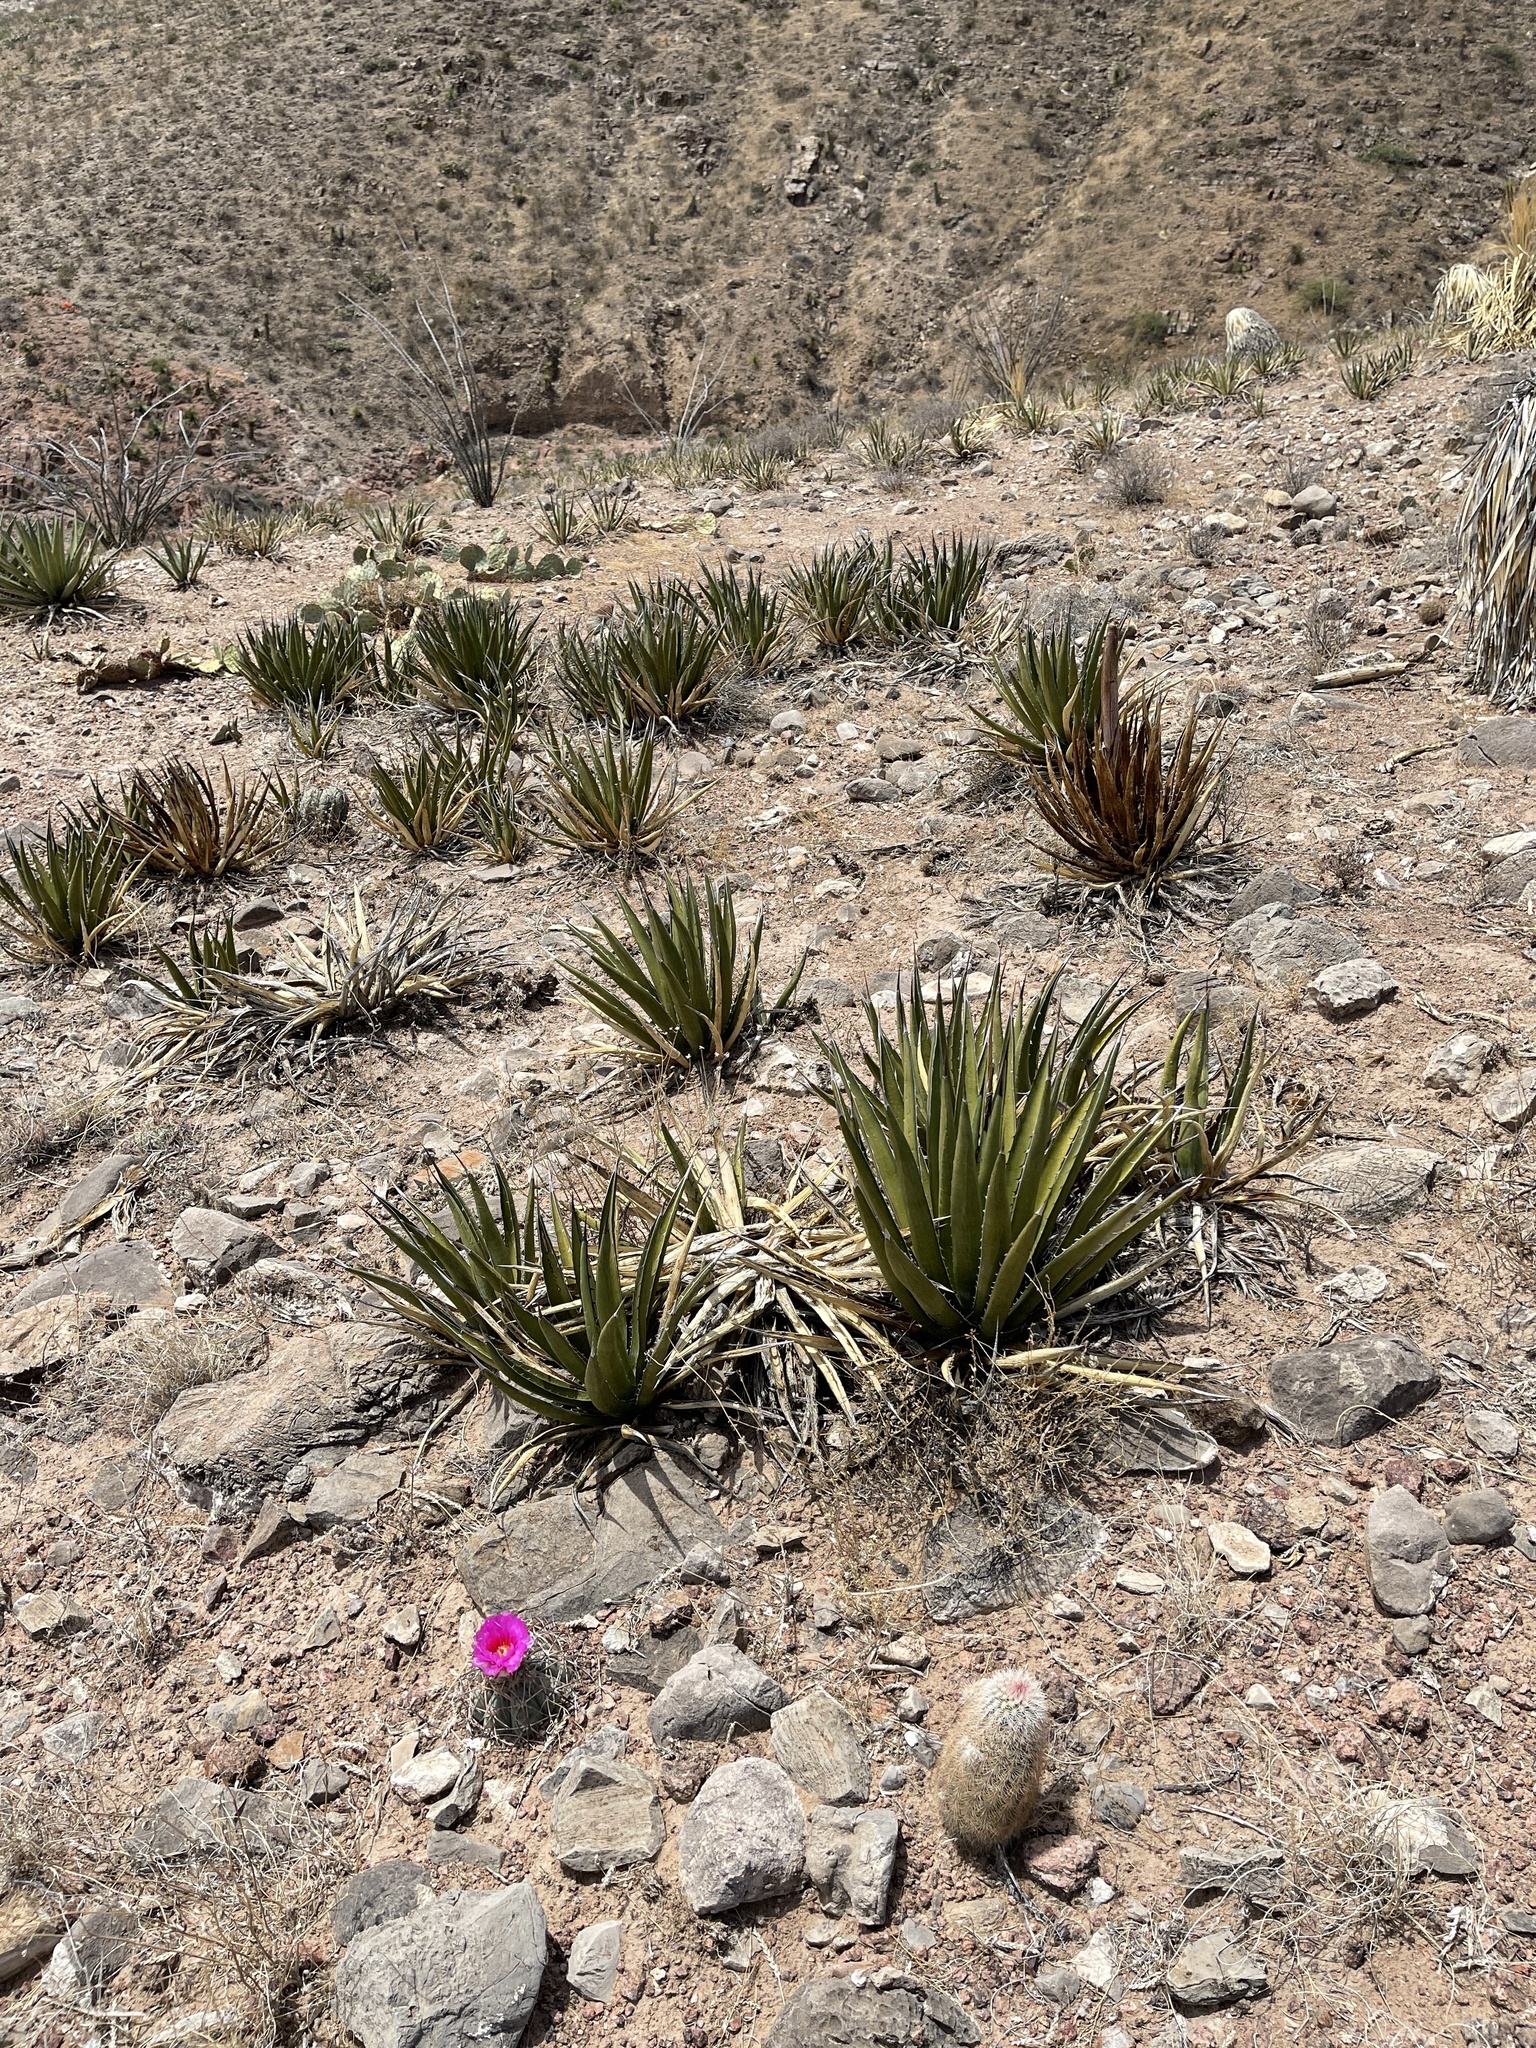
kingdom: Plantae
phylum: Tracheophyta
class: Liliopsida
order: Asparagales
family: Asparagaceae
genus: Agave
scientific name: Agave lechuguilla
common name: Lecheguilla agave
